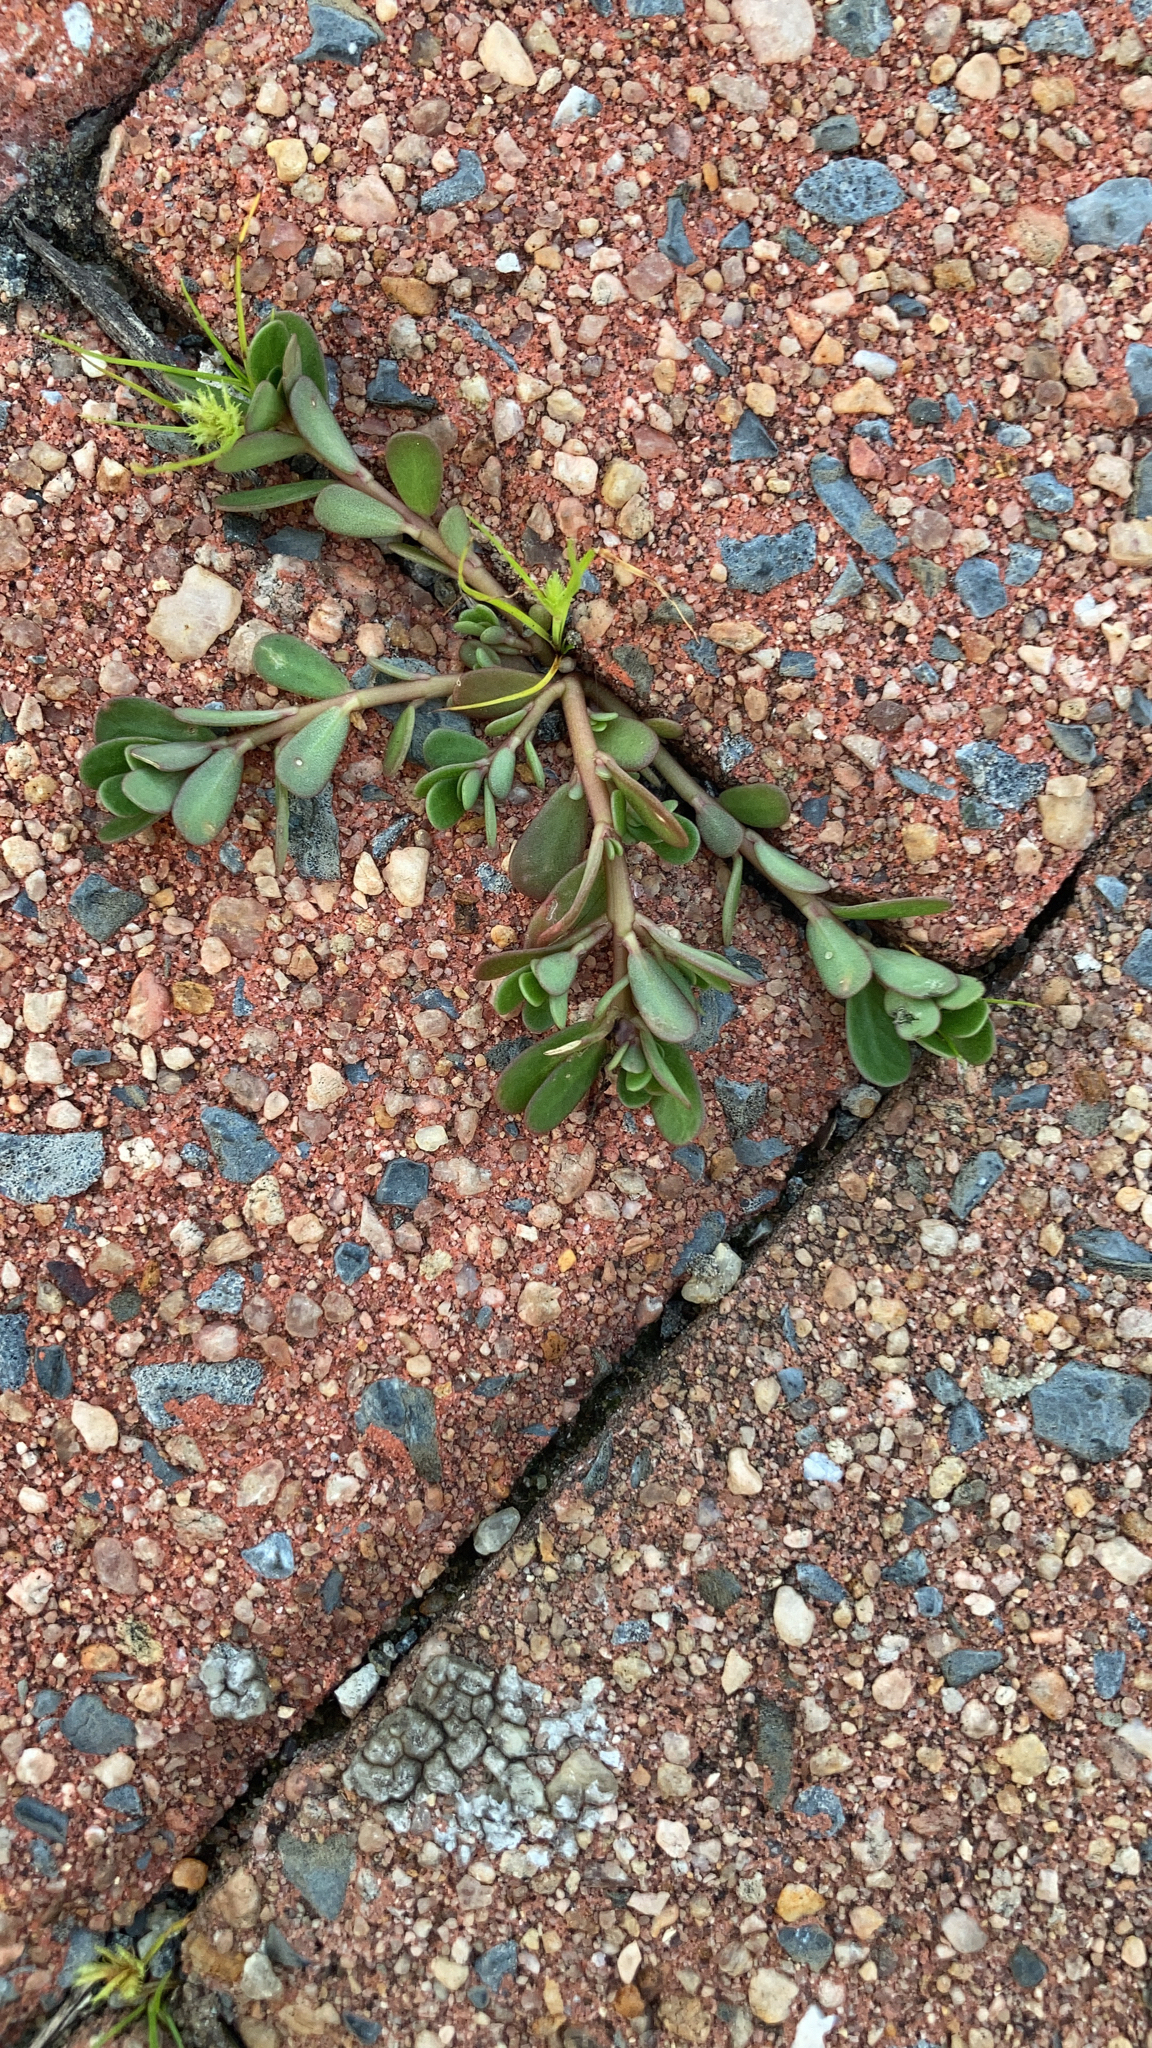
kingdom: Plantae
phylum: Tracheophyta
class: Magnoliopsida
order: Caryophyllales
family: Portulacaceae
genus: Portulaca
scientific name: Portulaca oleracea
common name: Common purslane
